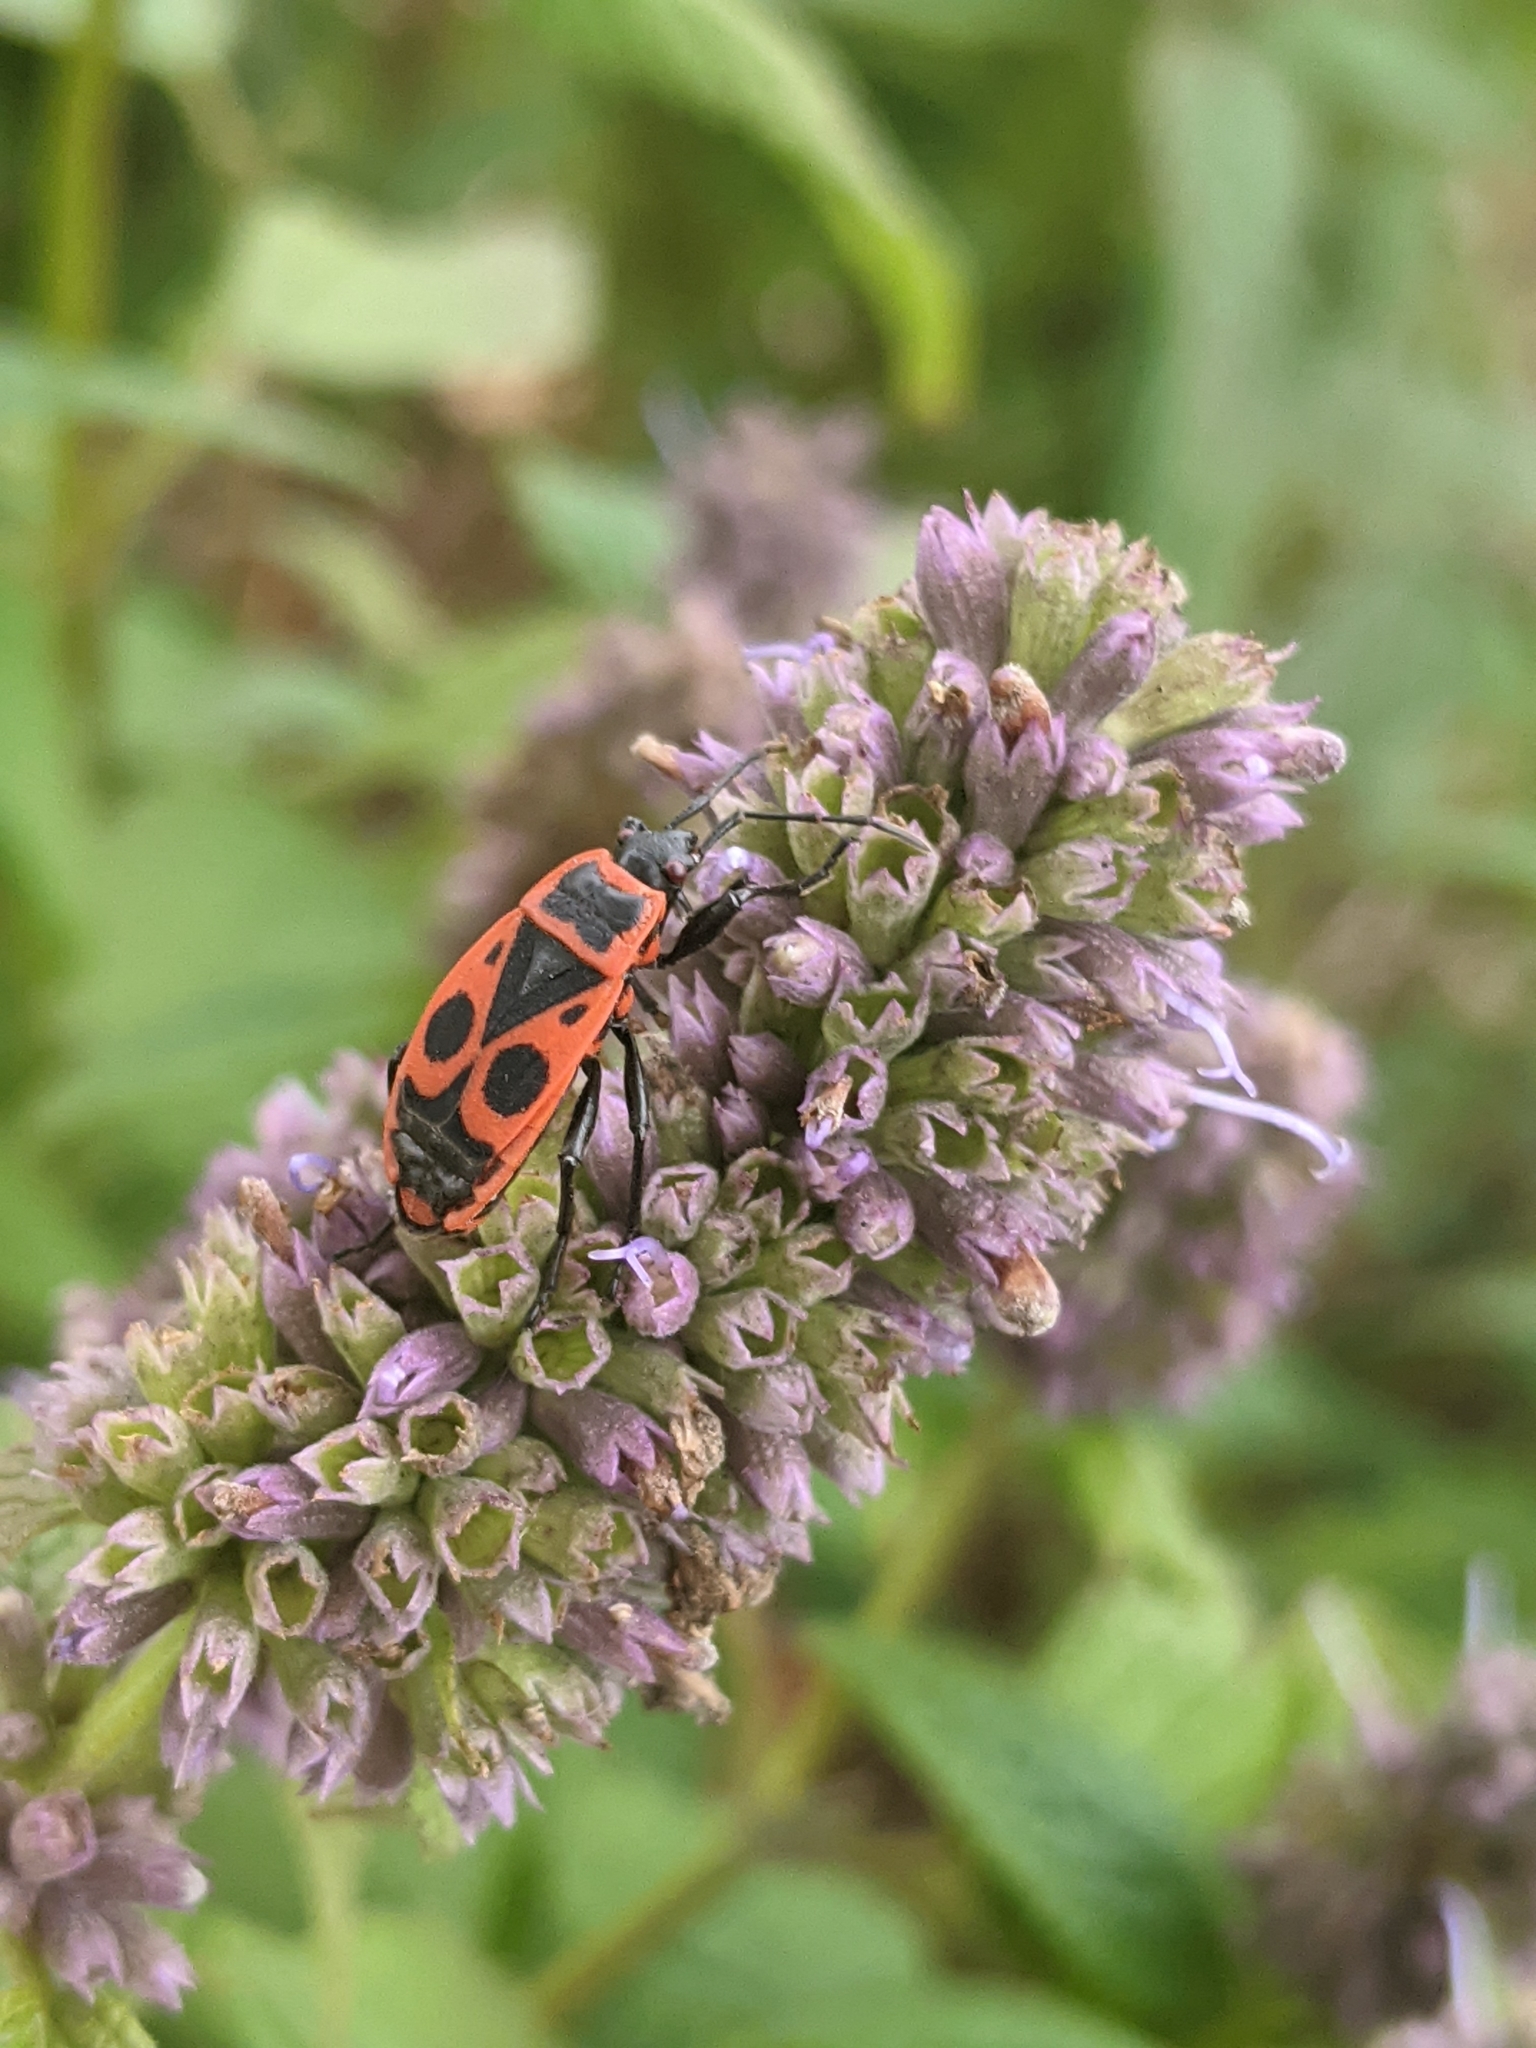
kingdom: Animalia
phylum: Arthropoda
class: Insecta
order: Hemiptera
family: Pyrrhocoridae
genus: Pyrrhocoris
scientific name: Pyrrhocoris apterus
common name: Firebug
